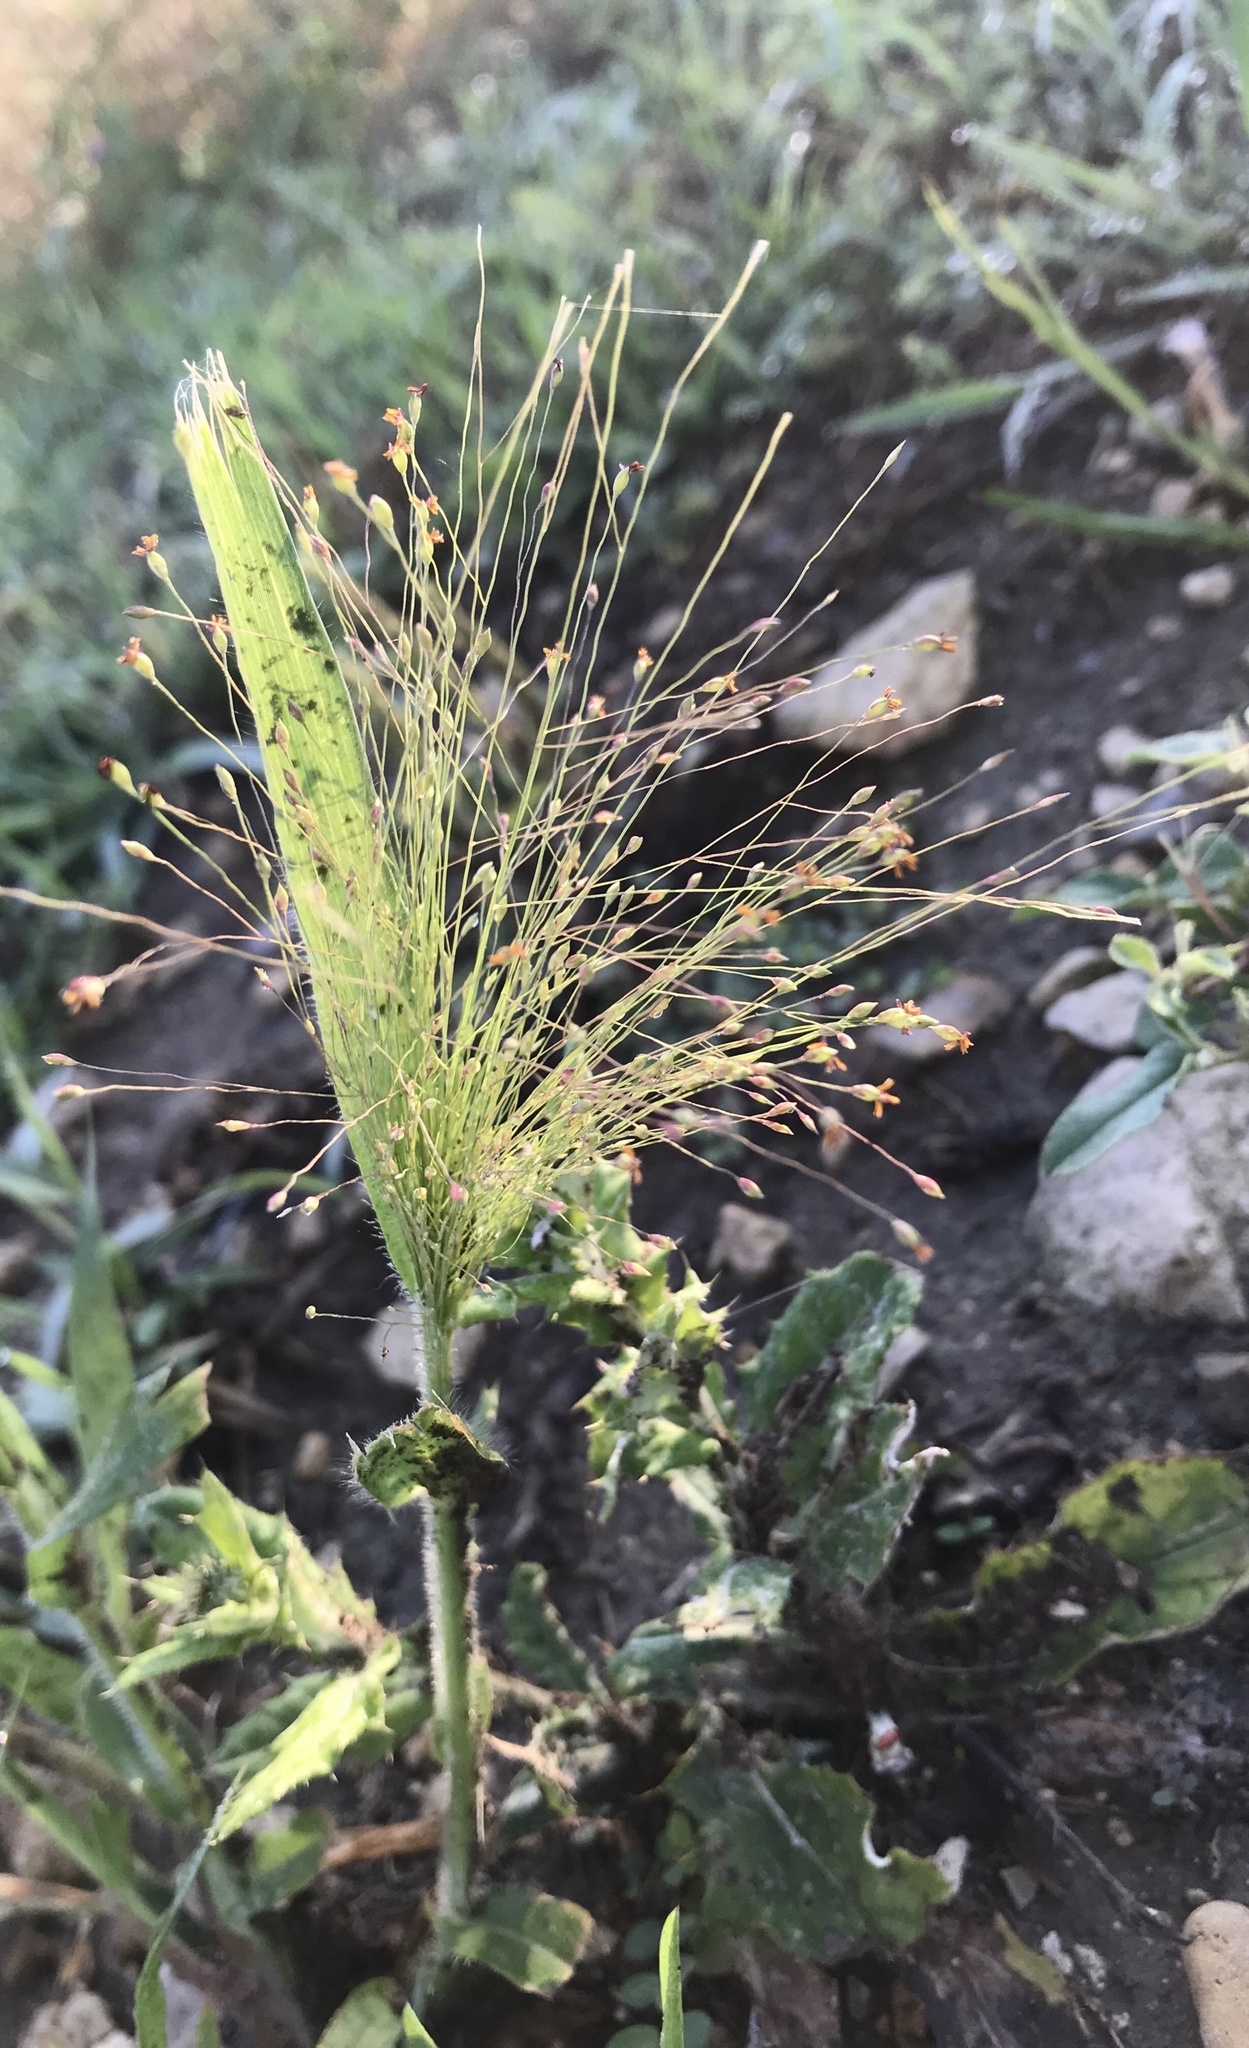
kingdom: Plantae
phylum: Tracheophyta
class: Liliopsida
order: Poales
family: Poaceae
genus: Panicum
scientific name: Panicum capillare
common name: Witch-grass
